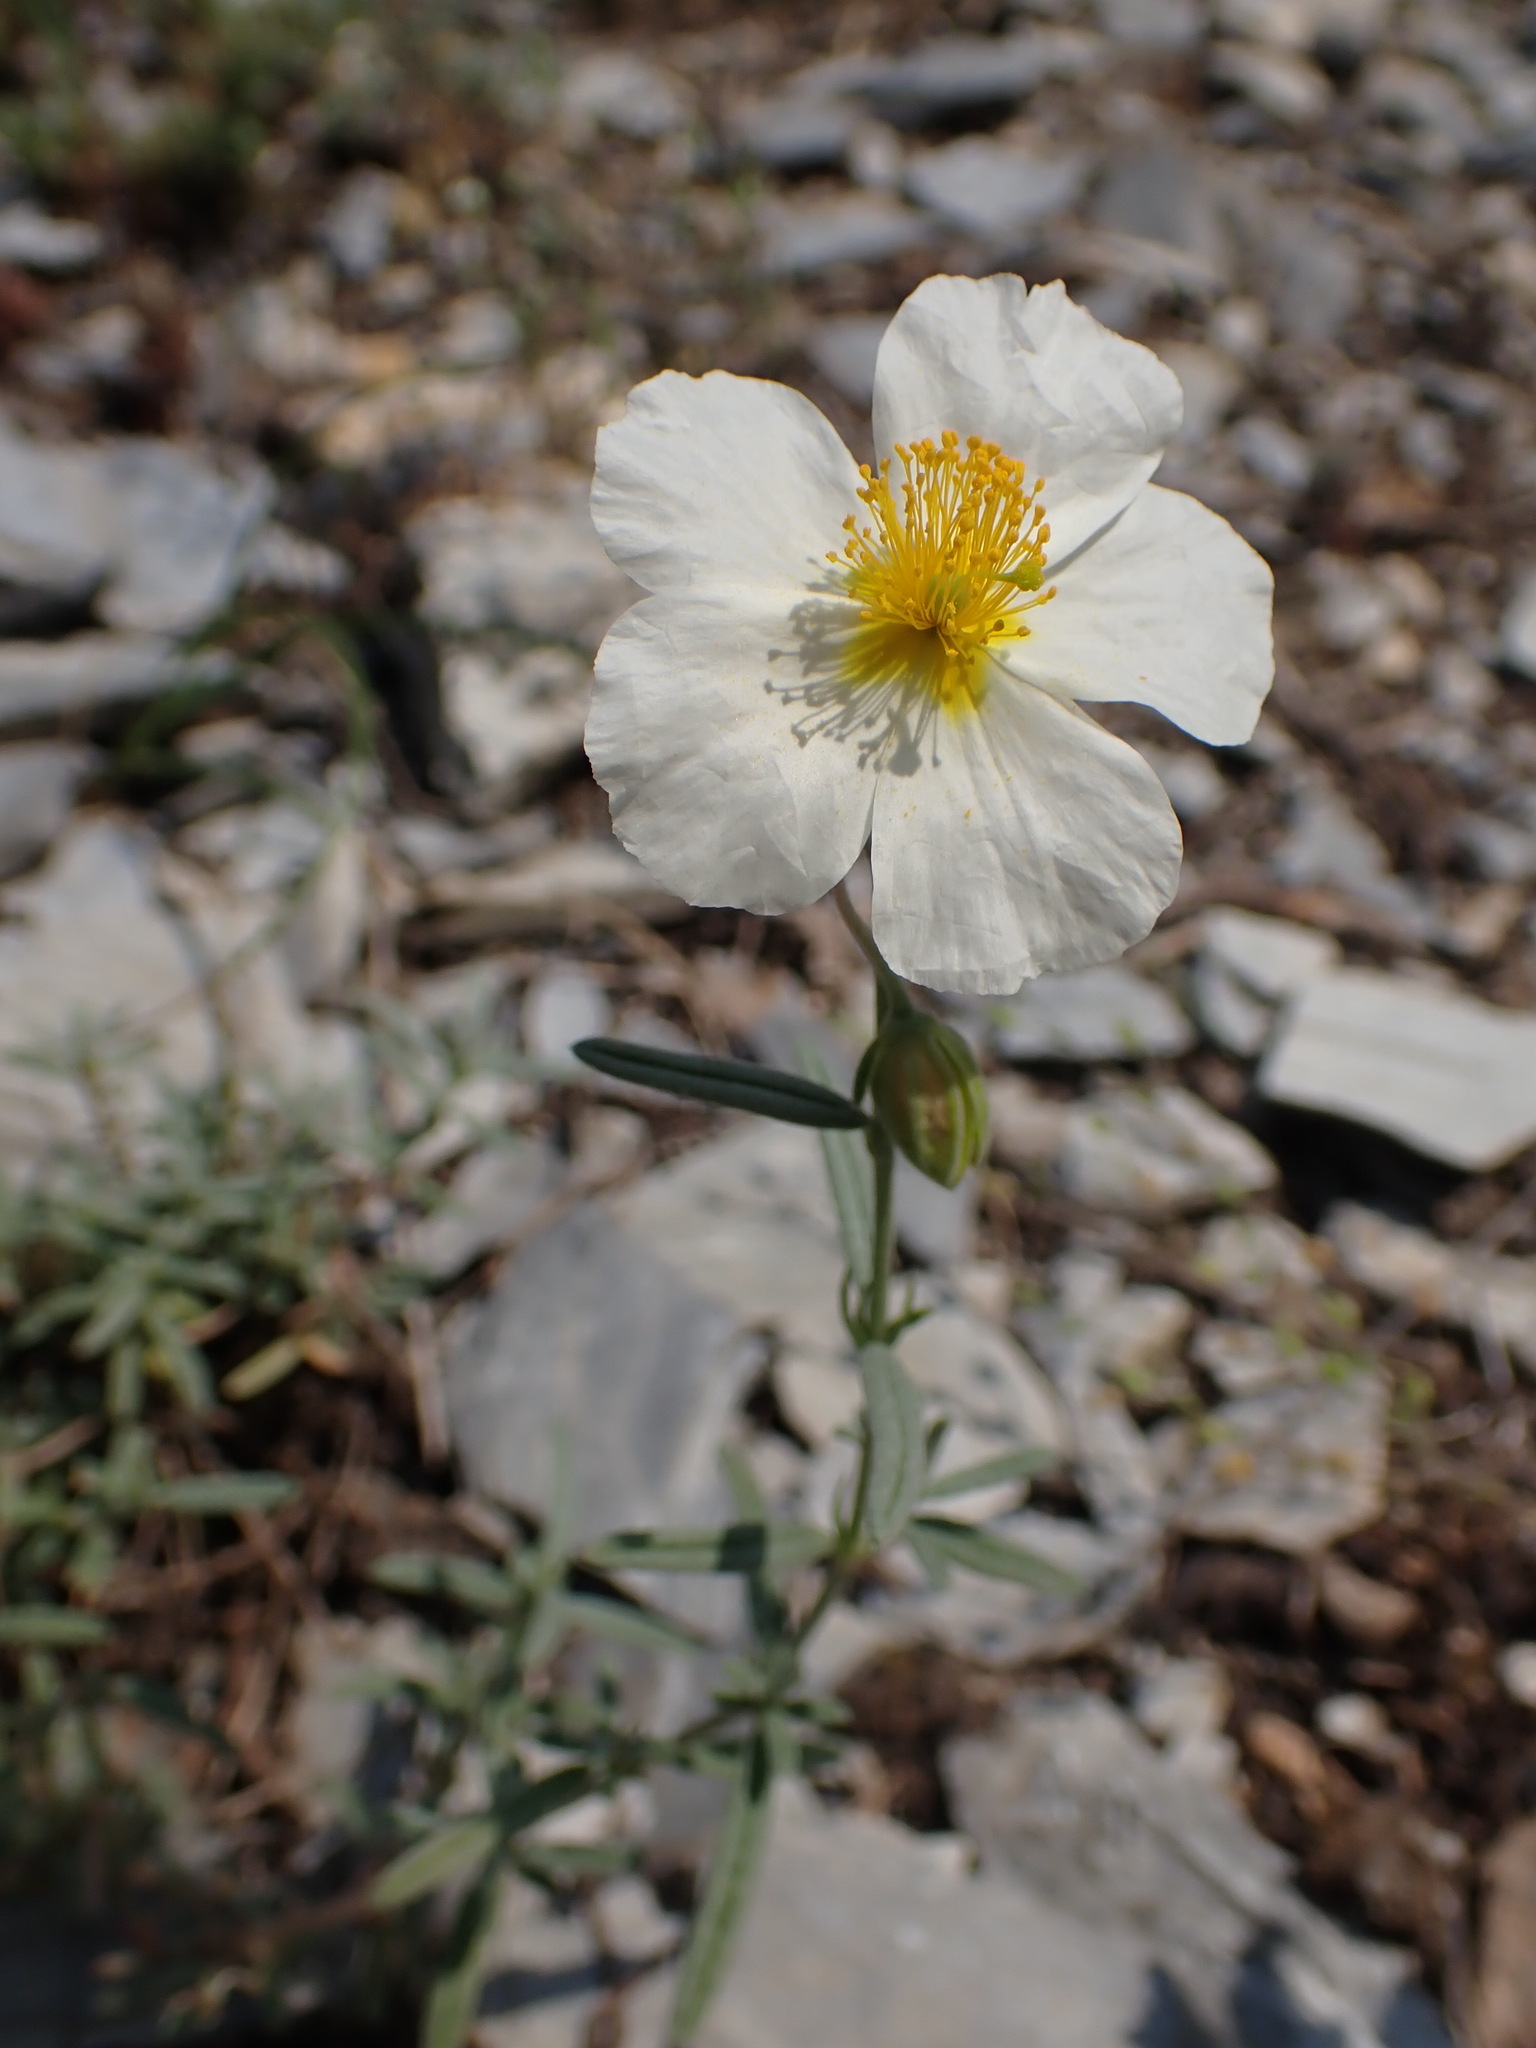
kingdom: Plantae
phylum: Tracheophyta
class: Magnoliopsida
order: Malvales
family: Cistaceae
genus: Helianthemum
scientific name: Helianthemum apenninum
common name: White rock-rose
